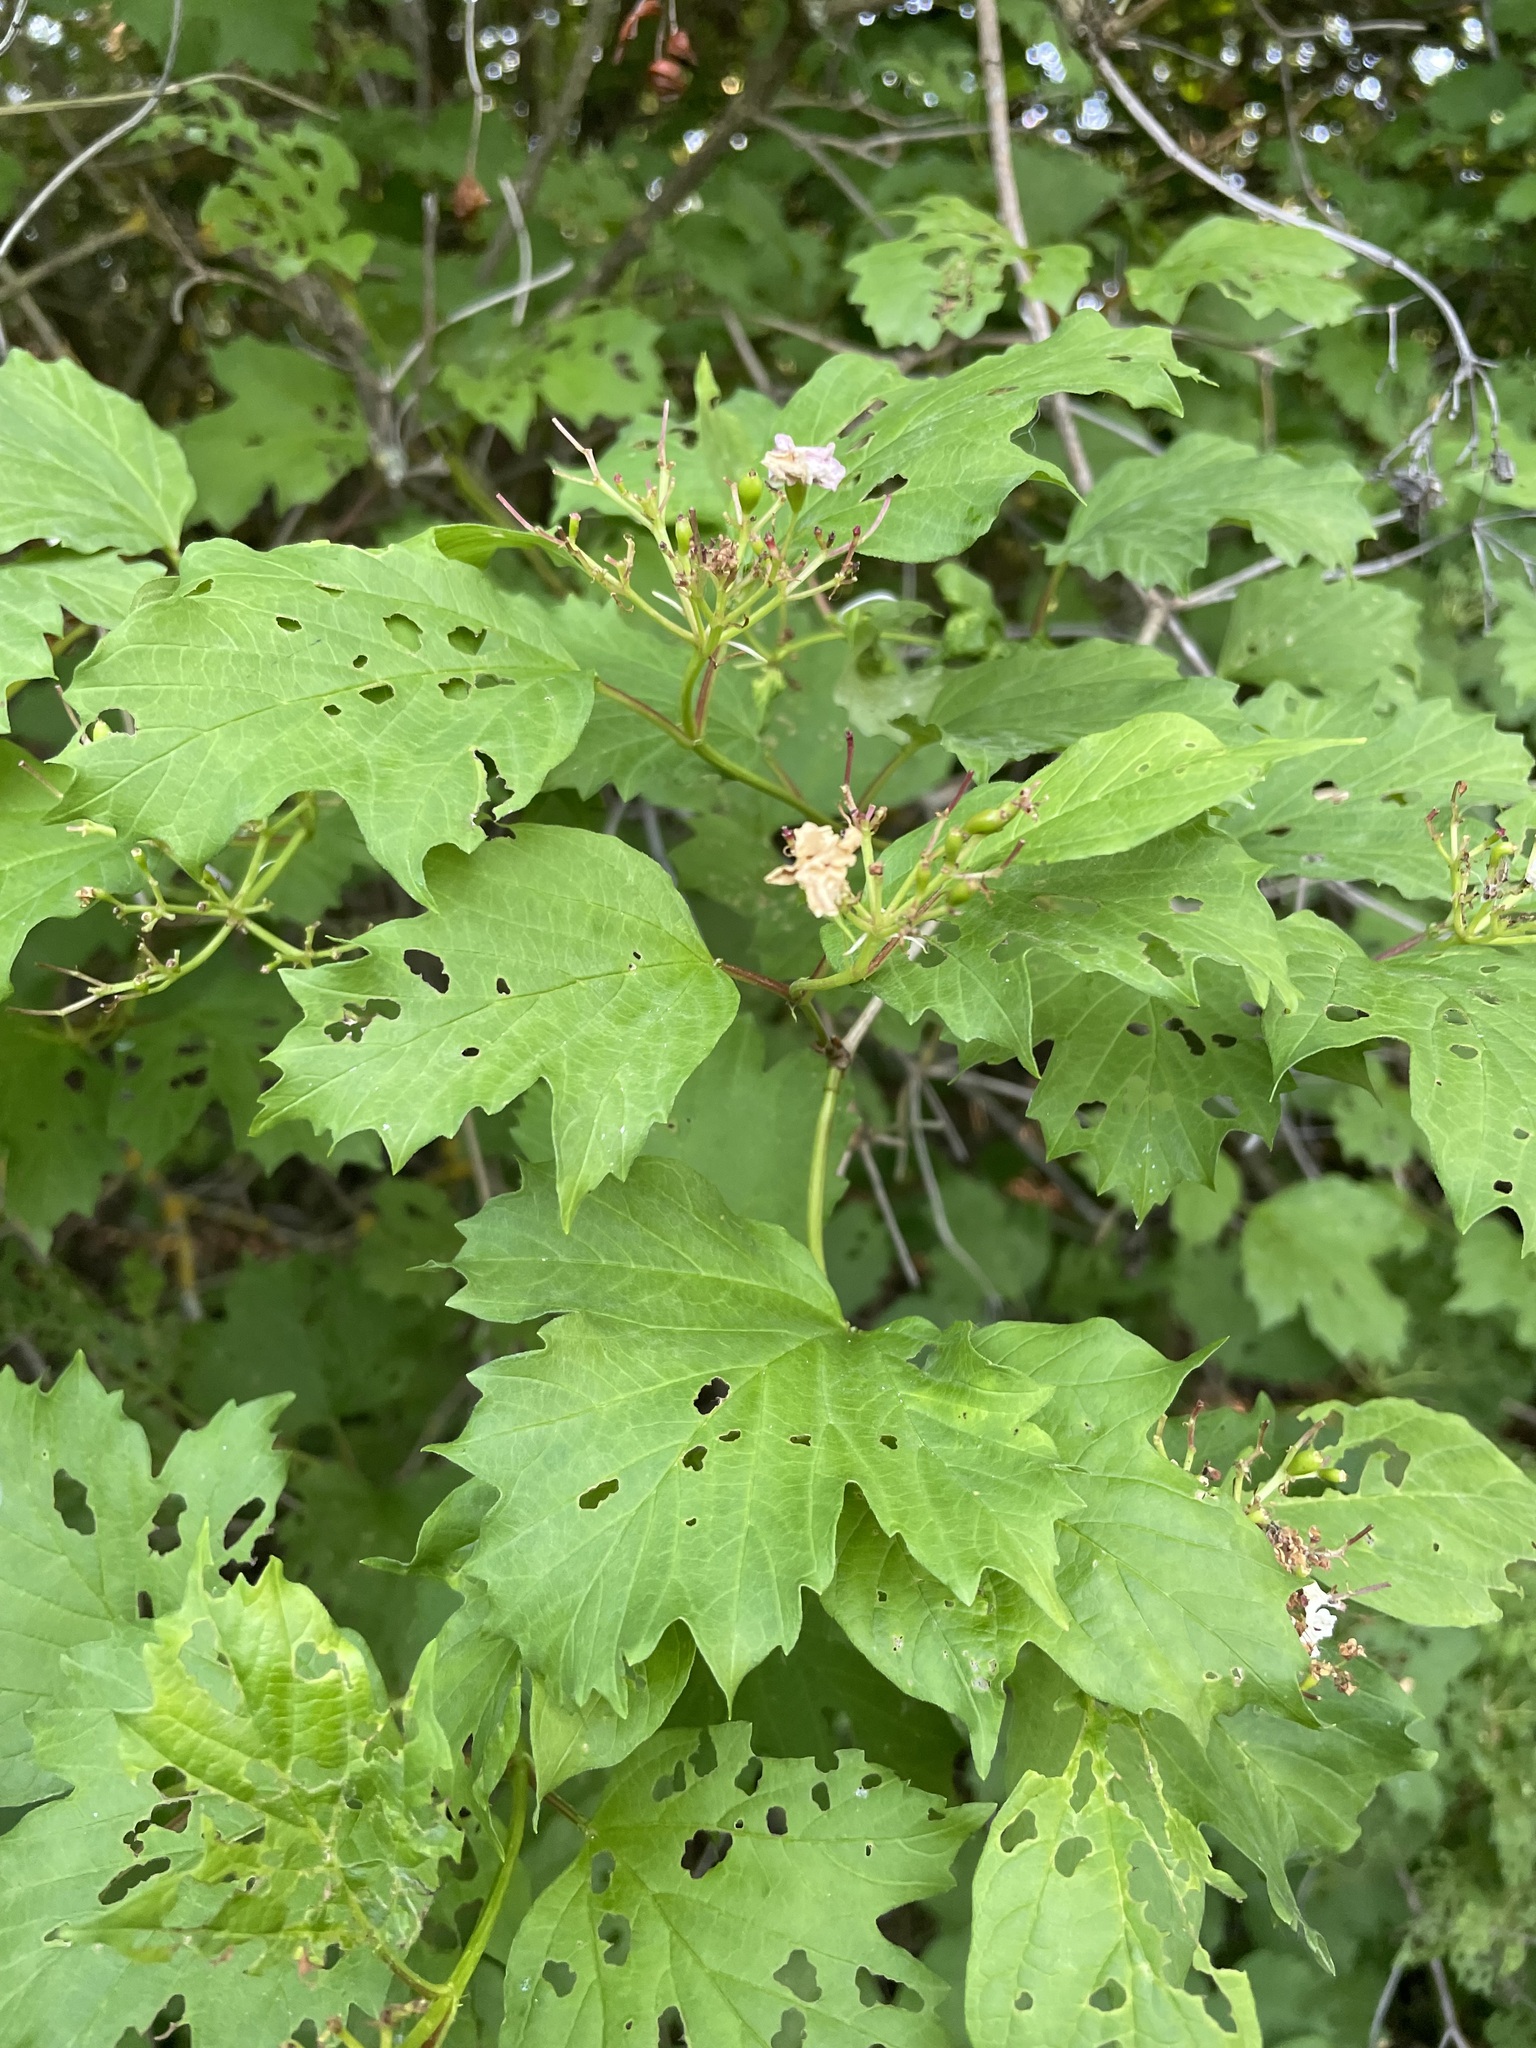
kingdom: Plantae
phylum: Tracheophyta
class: Magnoliopsida
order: Dipsacales
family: Viburnaceae
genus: Viburnum
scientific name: Viburnum opulus
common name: Guelder-rose
